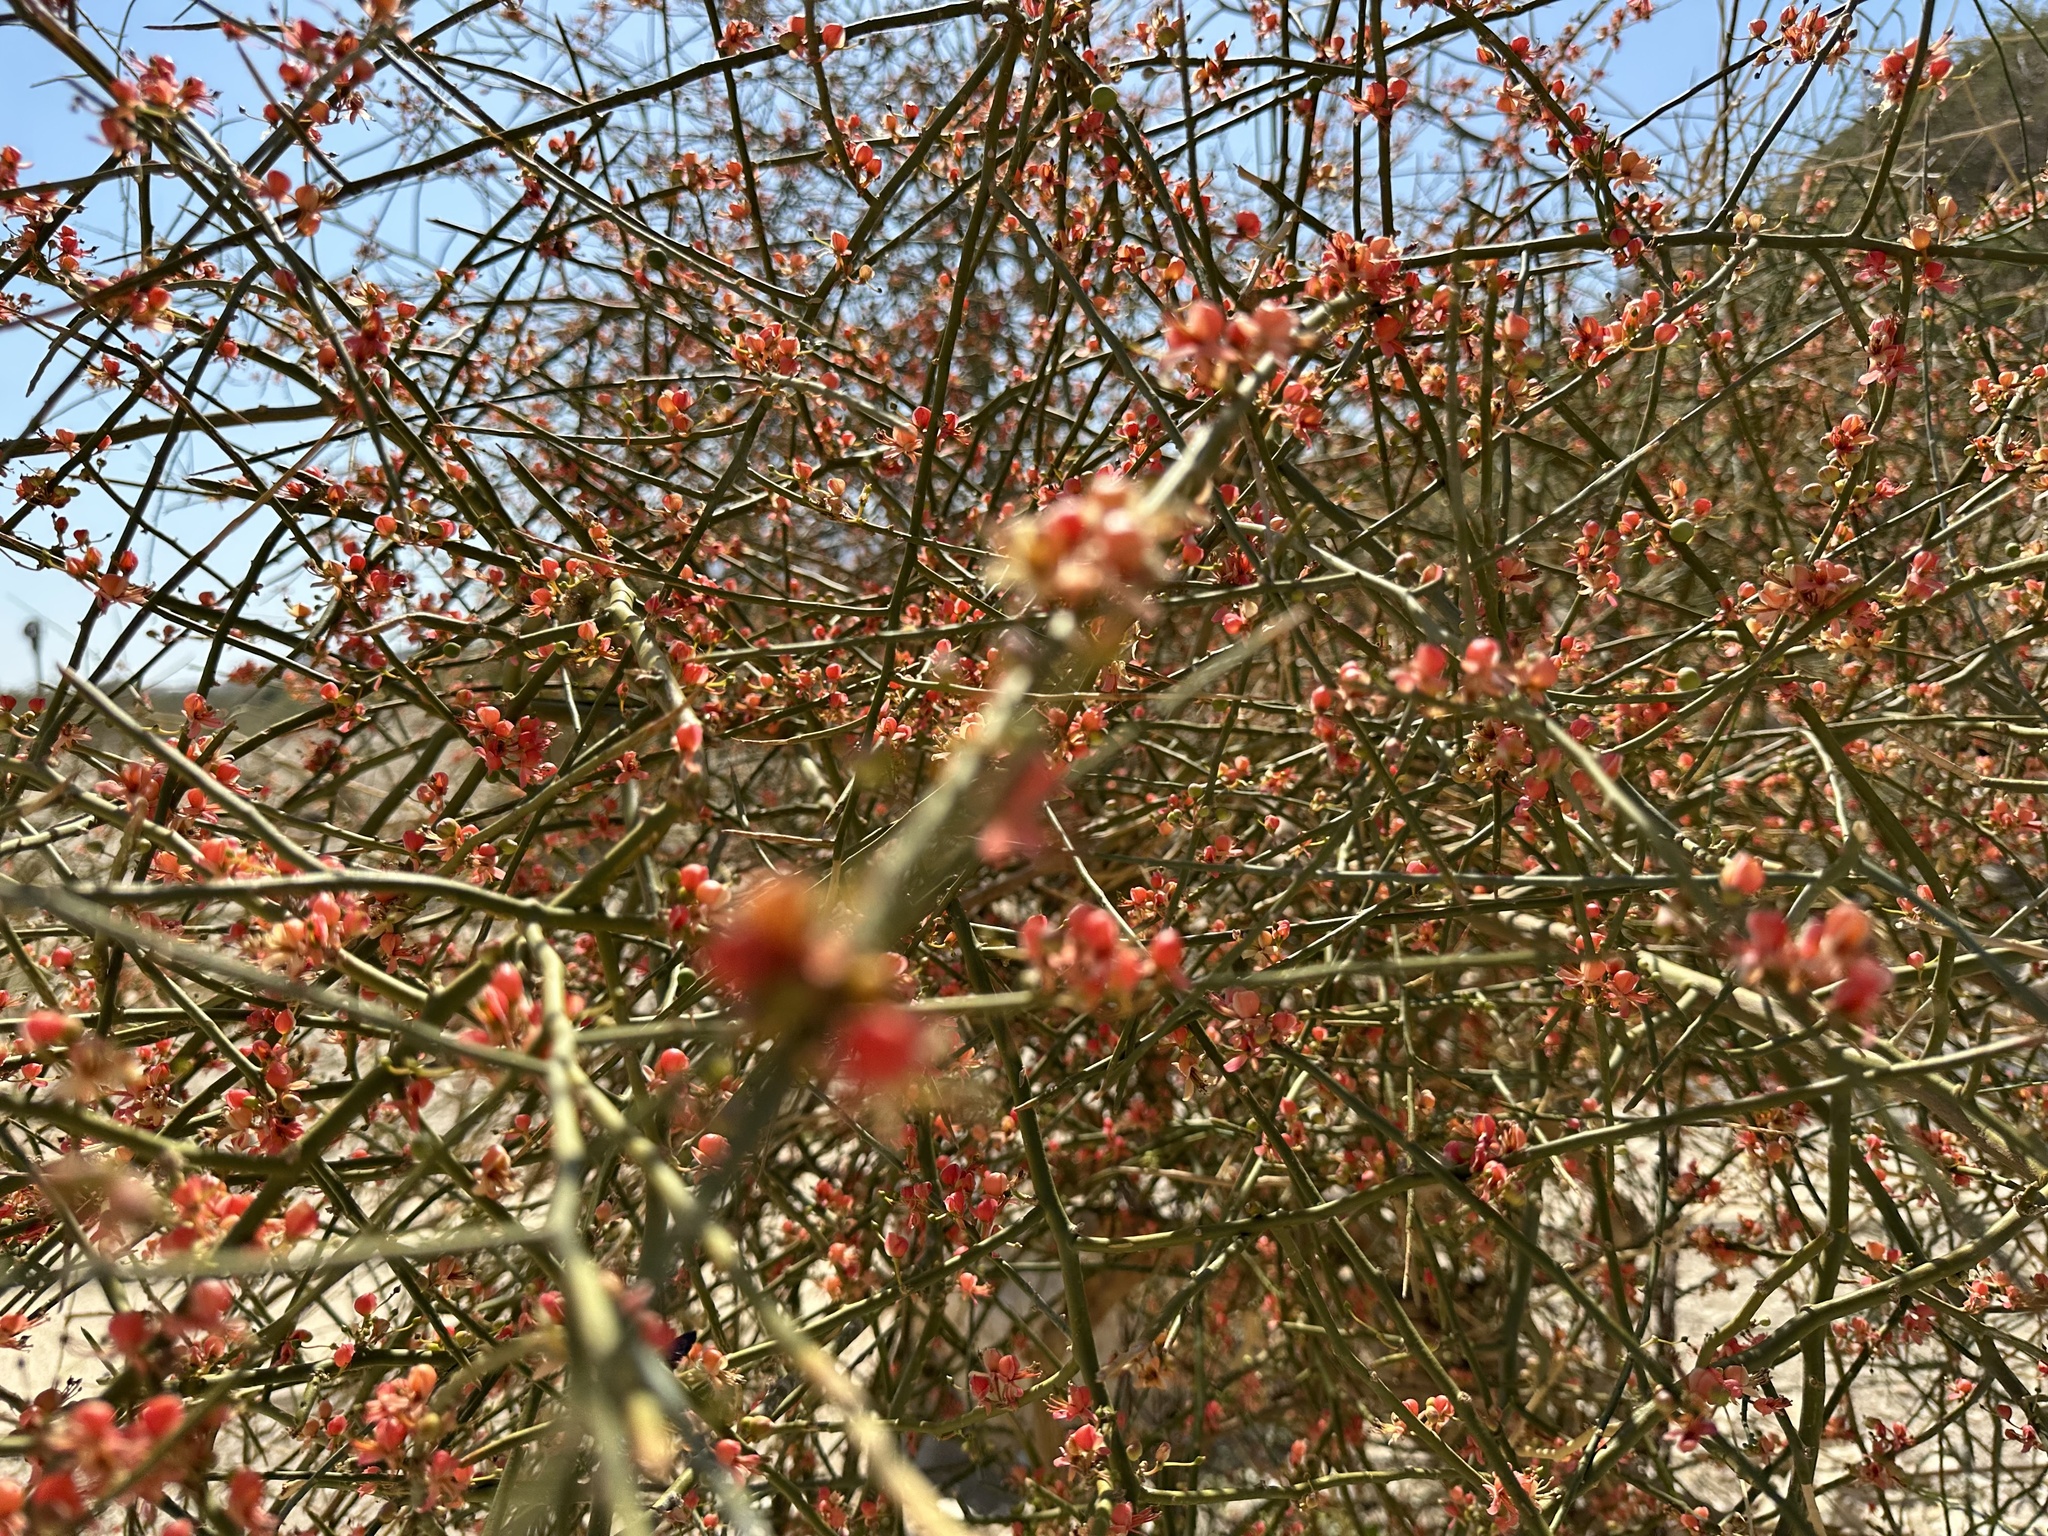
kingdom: Plantae
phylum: Tracheophyta
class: Magnoliopsida
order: Brassicales
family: Capparaceae
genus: Capparis
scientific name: Capparis decidua
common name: Sodada
